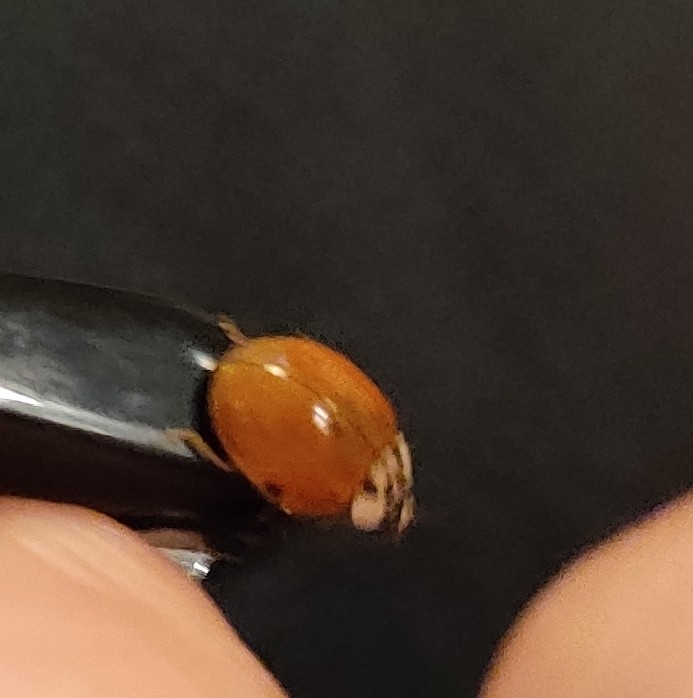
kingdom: Animalia
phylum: Arthropoda
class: Insecta
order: Coleoptera
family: Coccinellidae
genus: Harmonia
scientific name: Harmonia axyridis
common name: Harlequin ladybird
